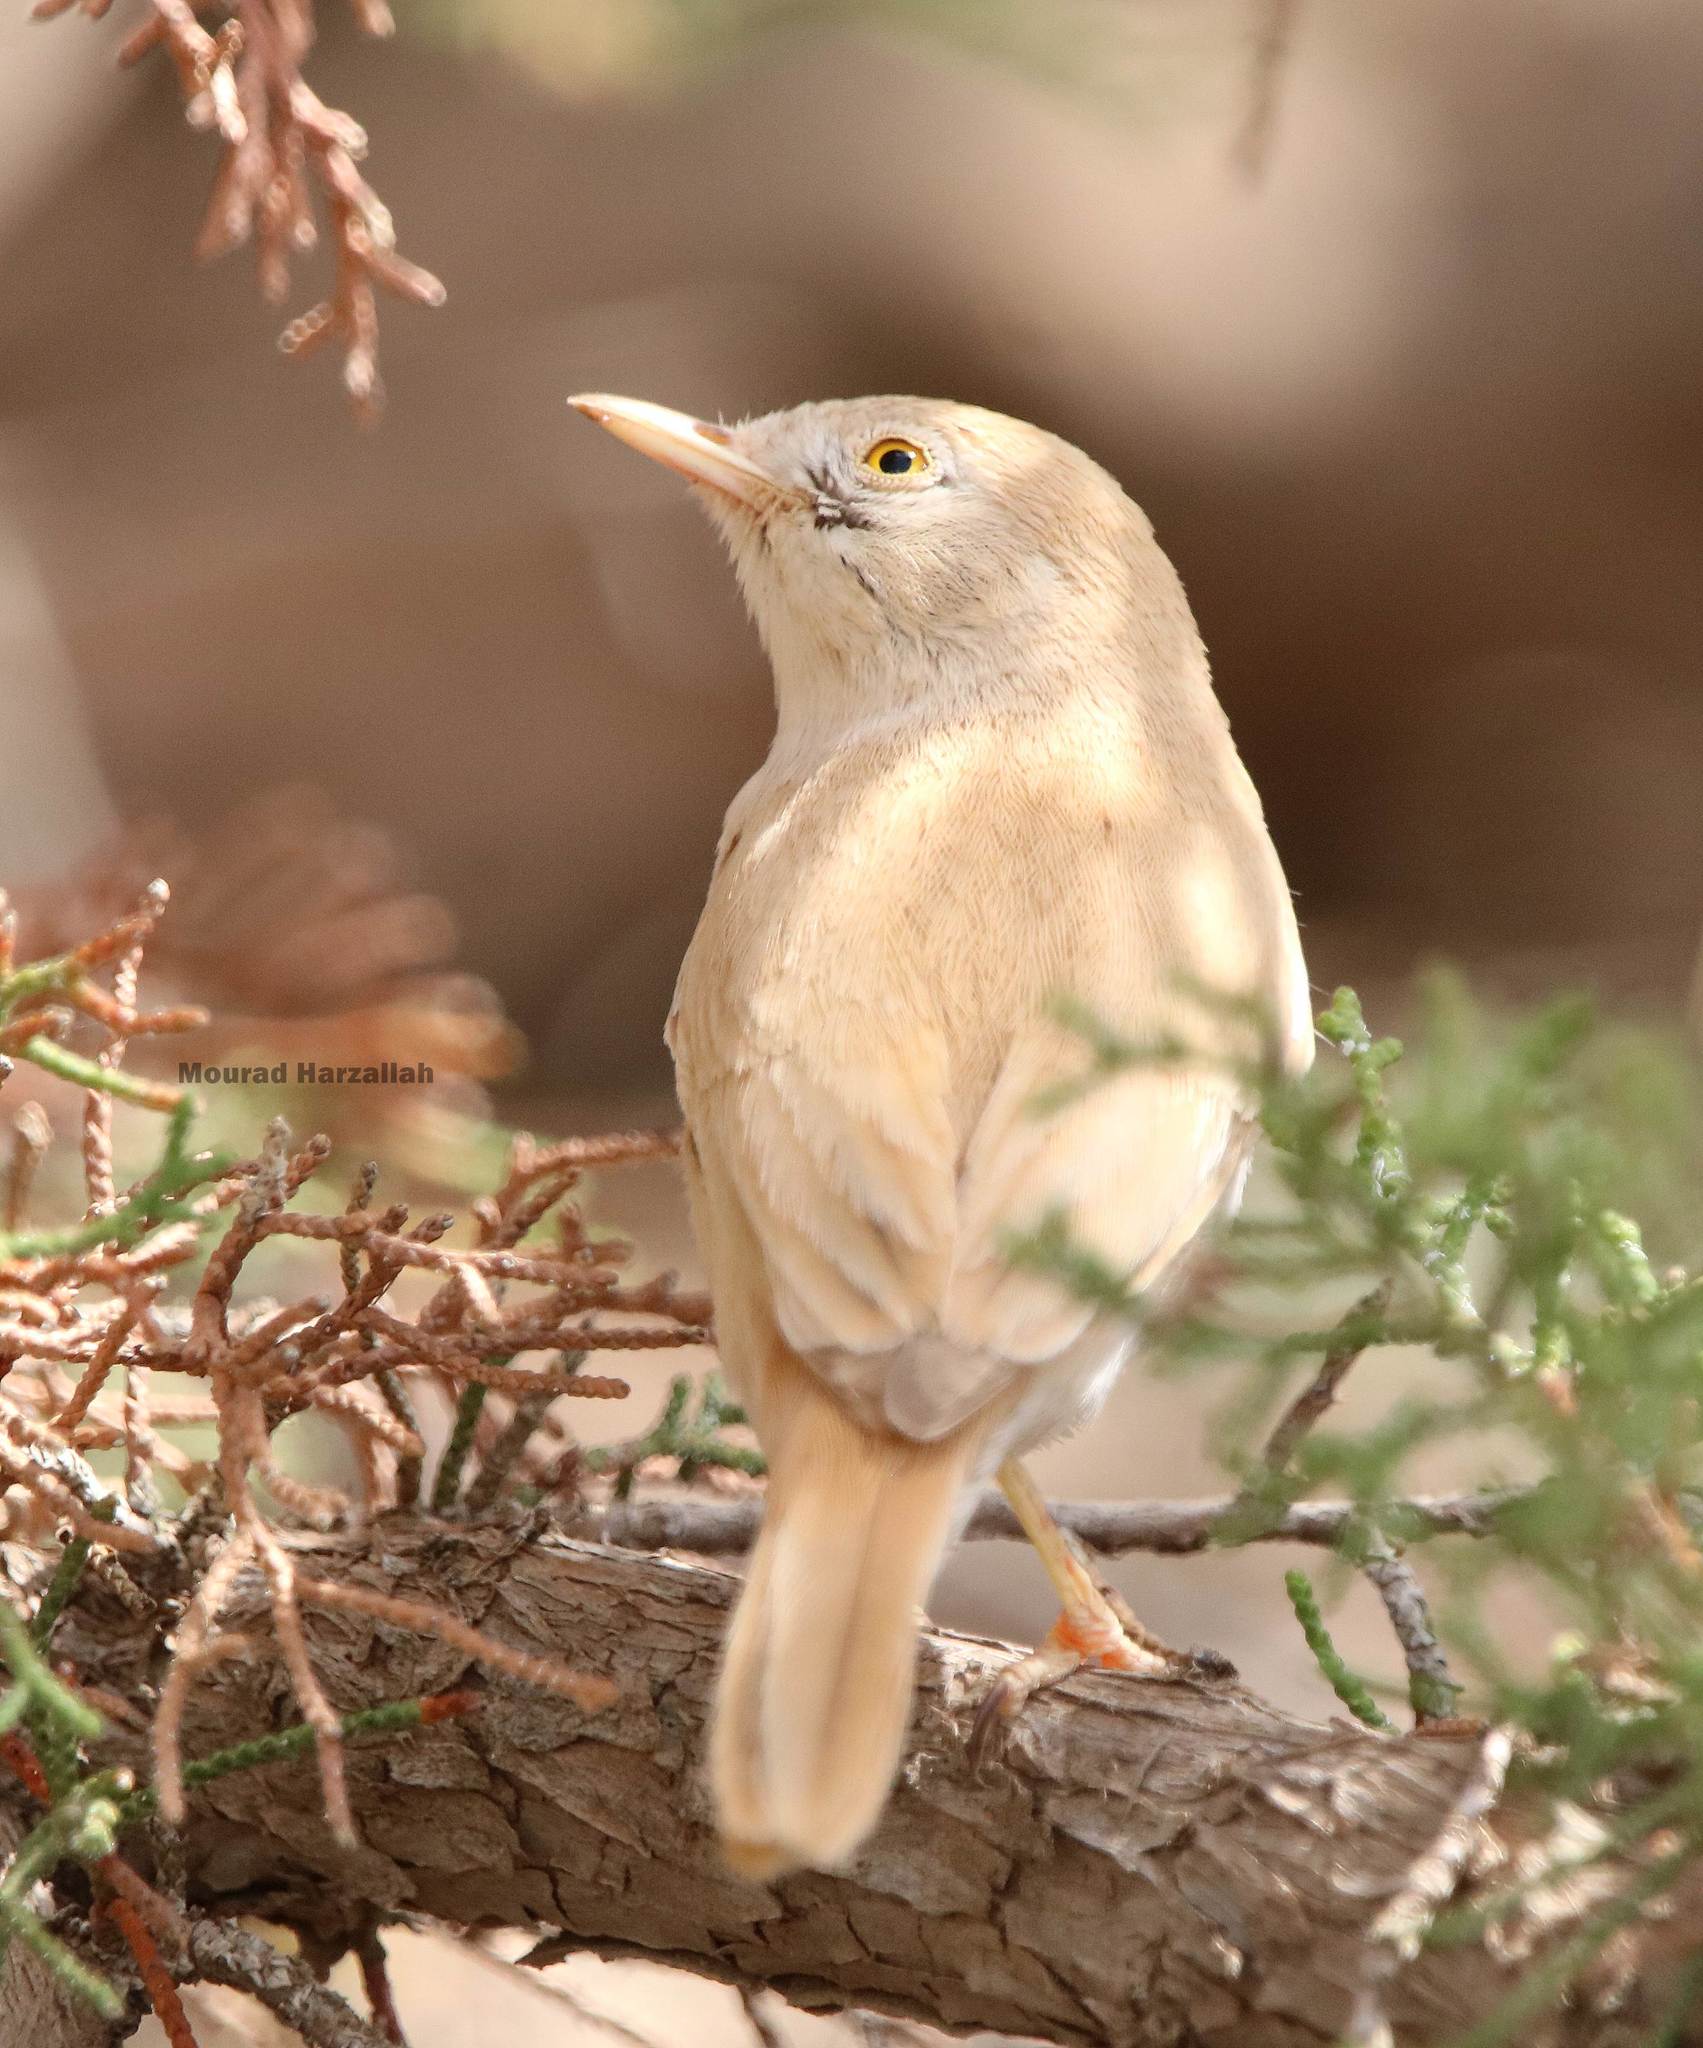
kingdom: Animalia
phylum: Chordata
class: Aves
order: Passeriformes
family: Sylviidae
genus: Sylvia
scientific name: Sylvia deserti
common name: African desert warbler
